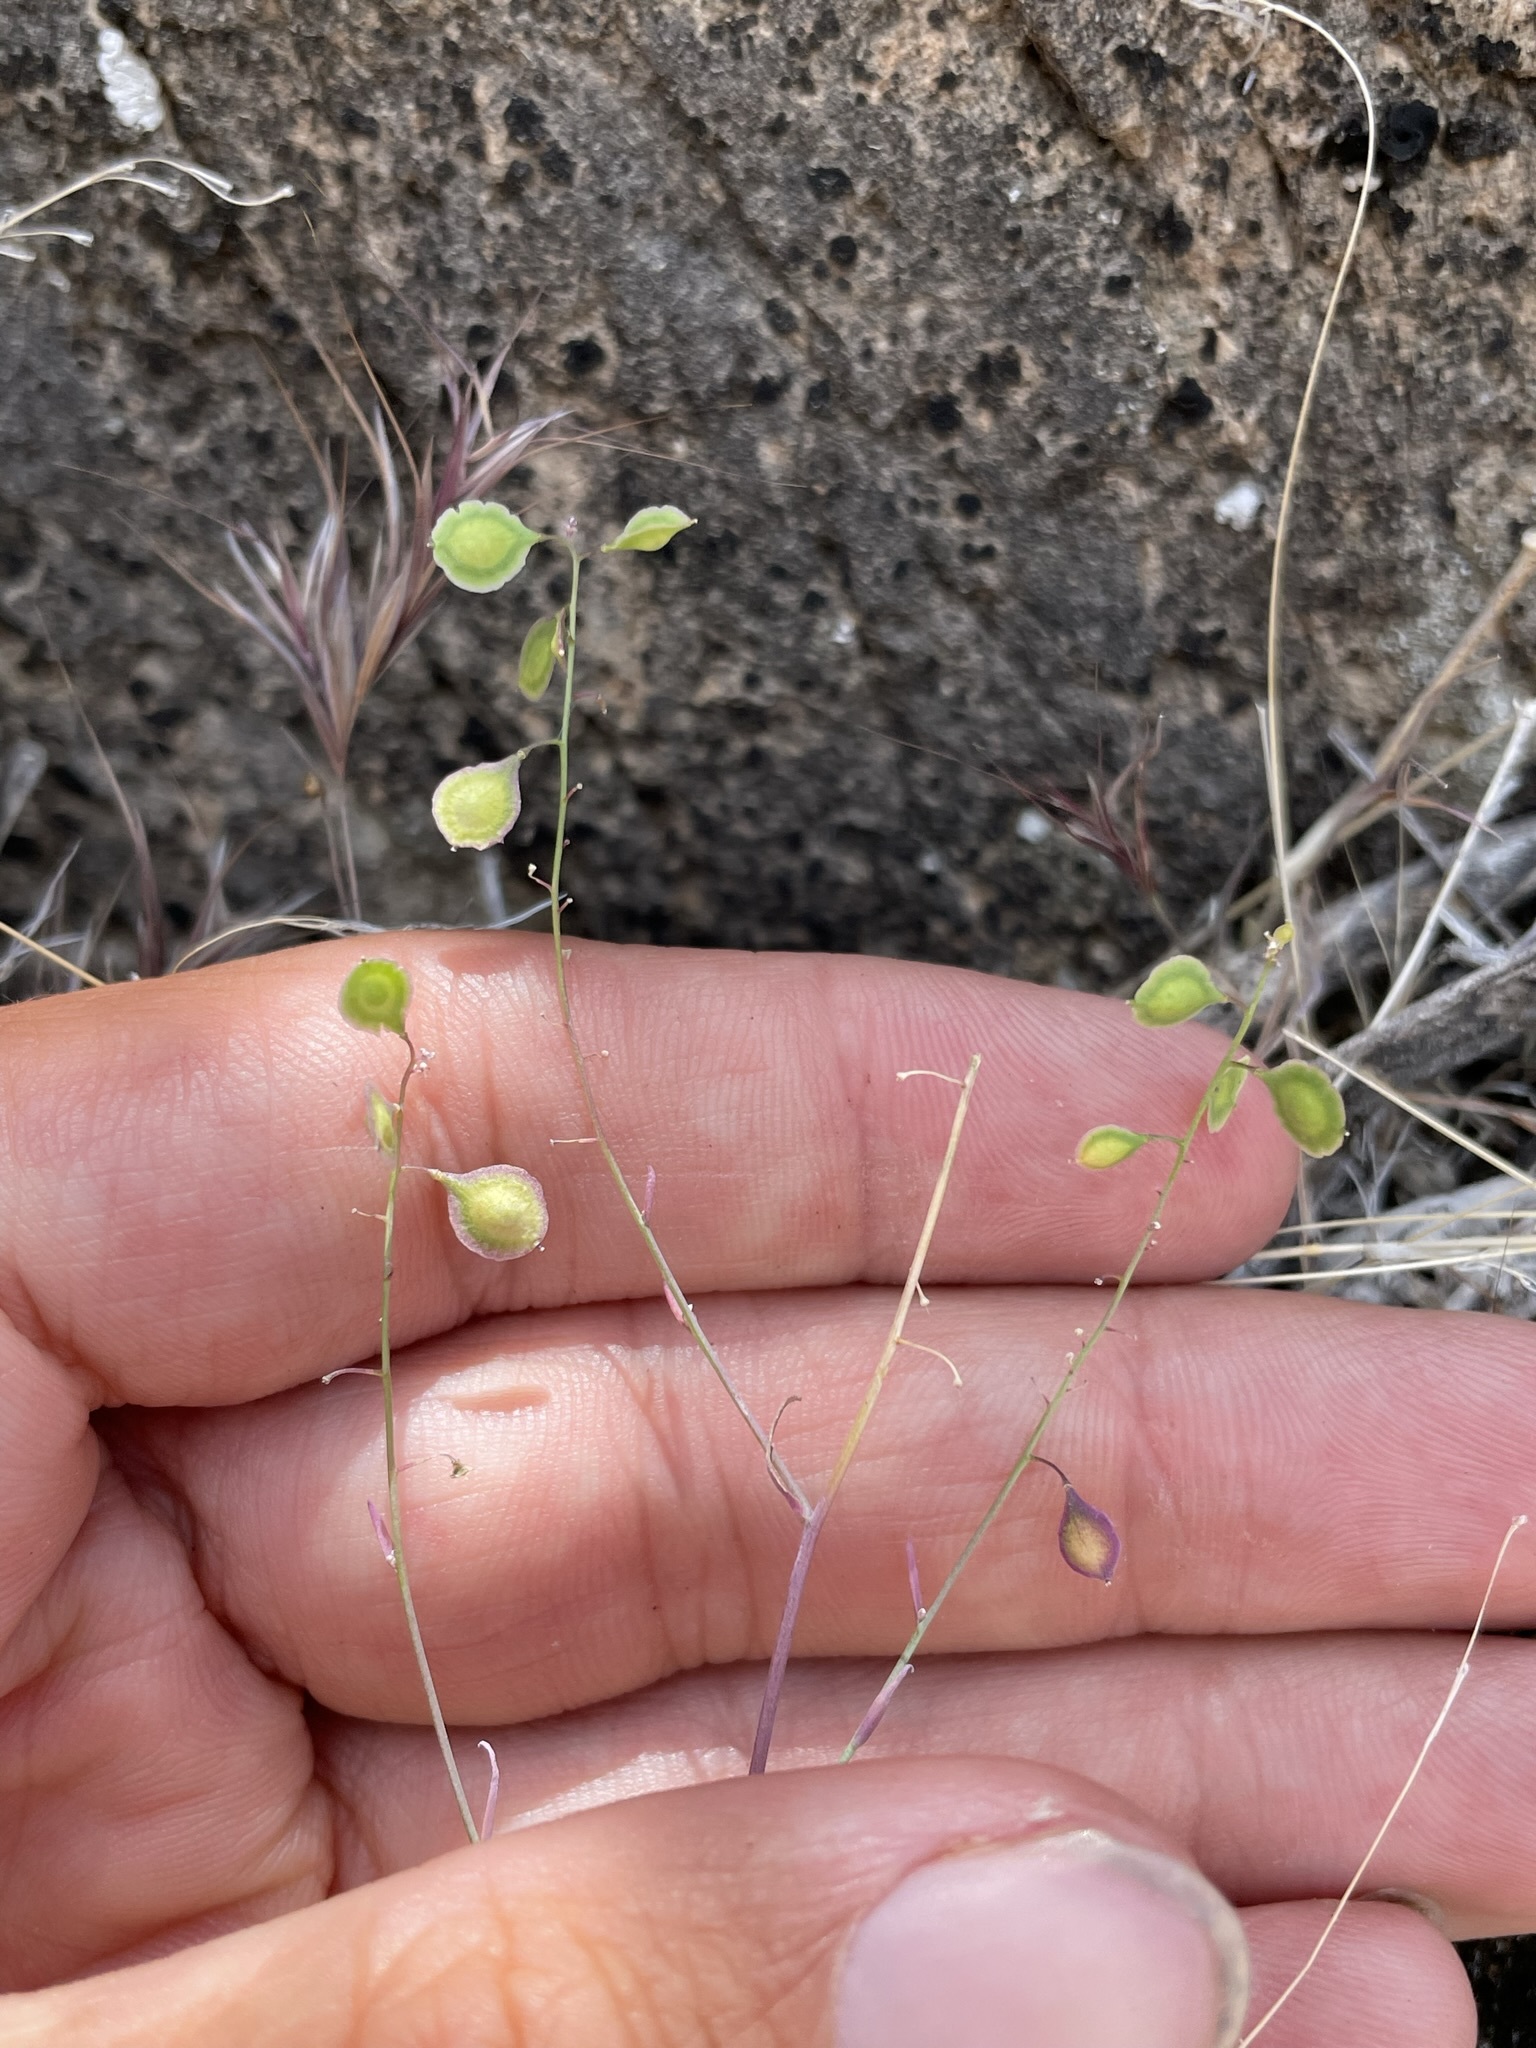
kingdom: Plantae
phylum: Tracheophyta
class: Magnoliopsida
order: Brassicales
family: Brassicaceae
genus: Thysanocarpus
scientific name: Thysanocarpus curvipes
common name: Sand fringepod
